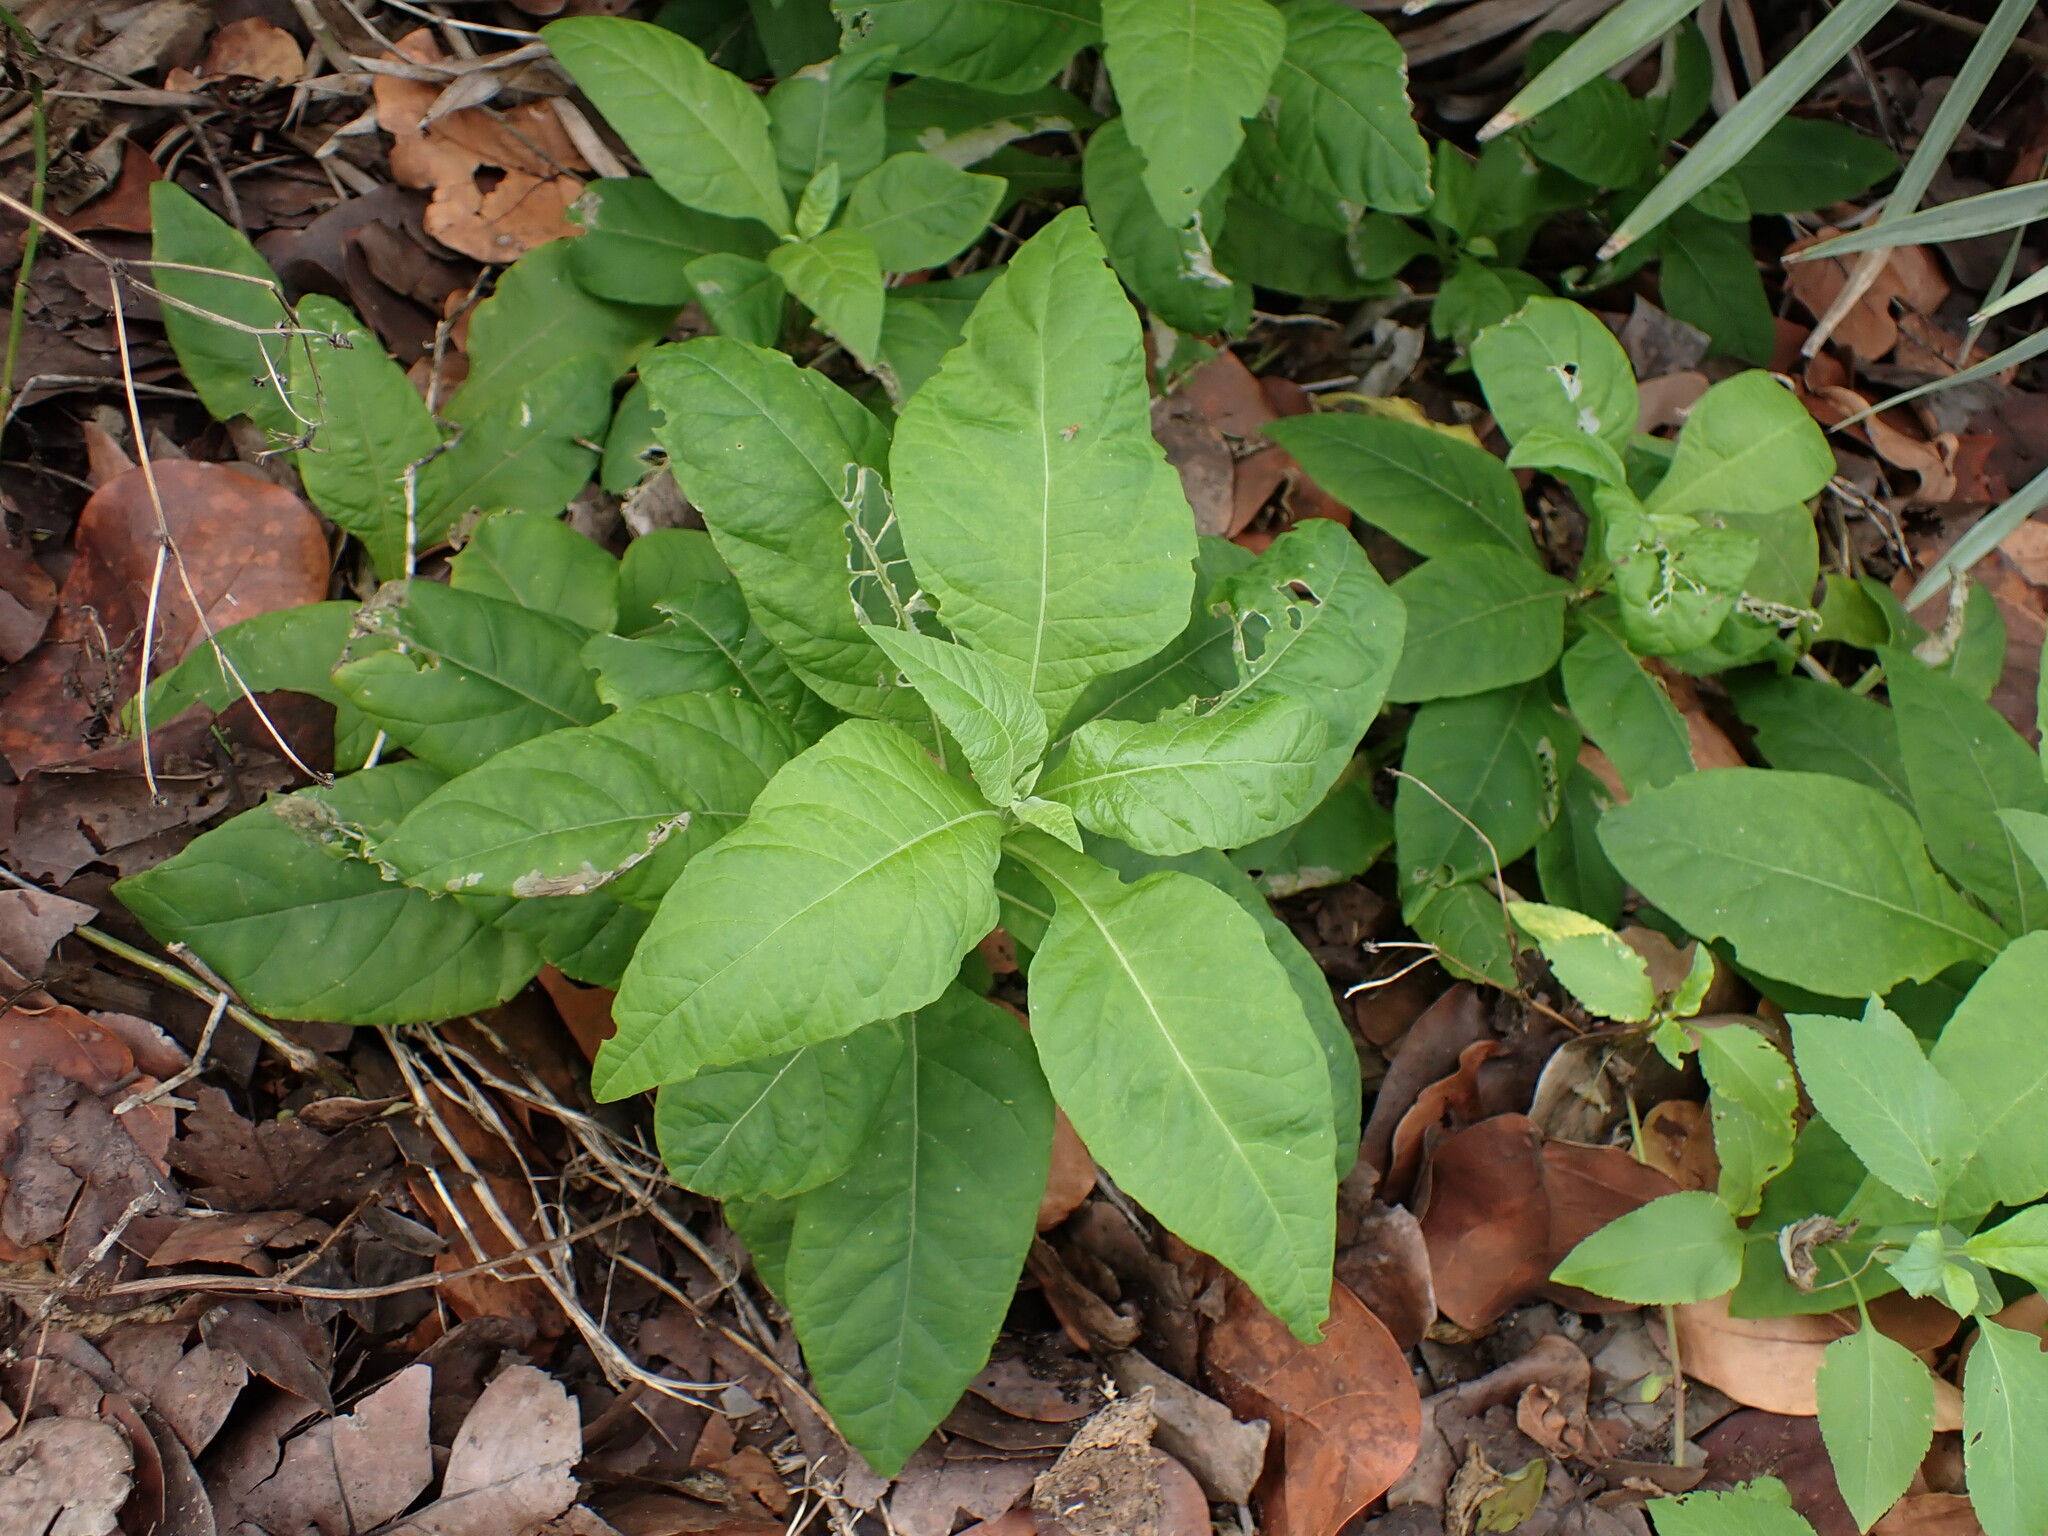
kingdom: Plantae
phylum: Tracheophyta
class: Magnoliopsida
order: Caryophyllales
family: Phytolaccaceae
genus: Phytolacca
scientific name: Phytolacca americana
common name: American pokeweed
